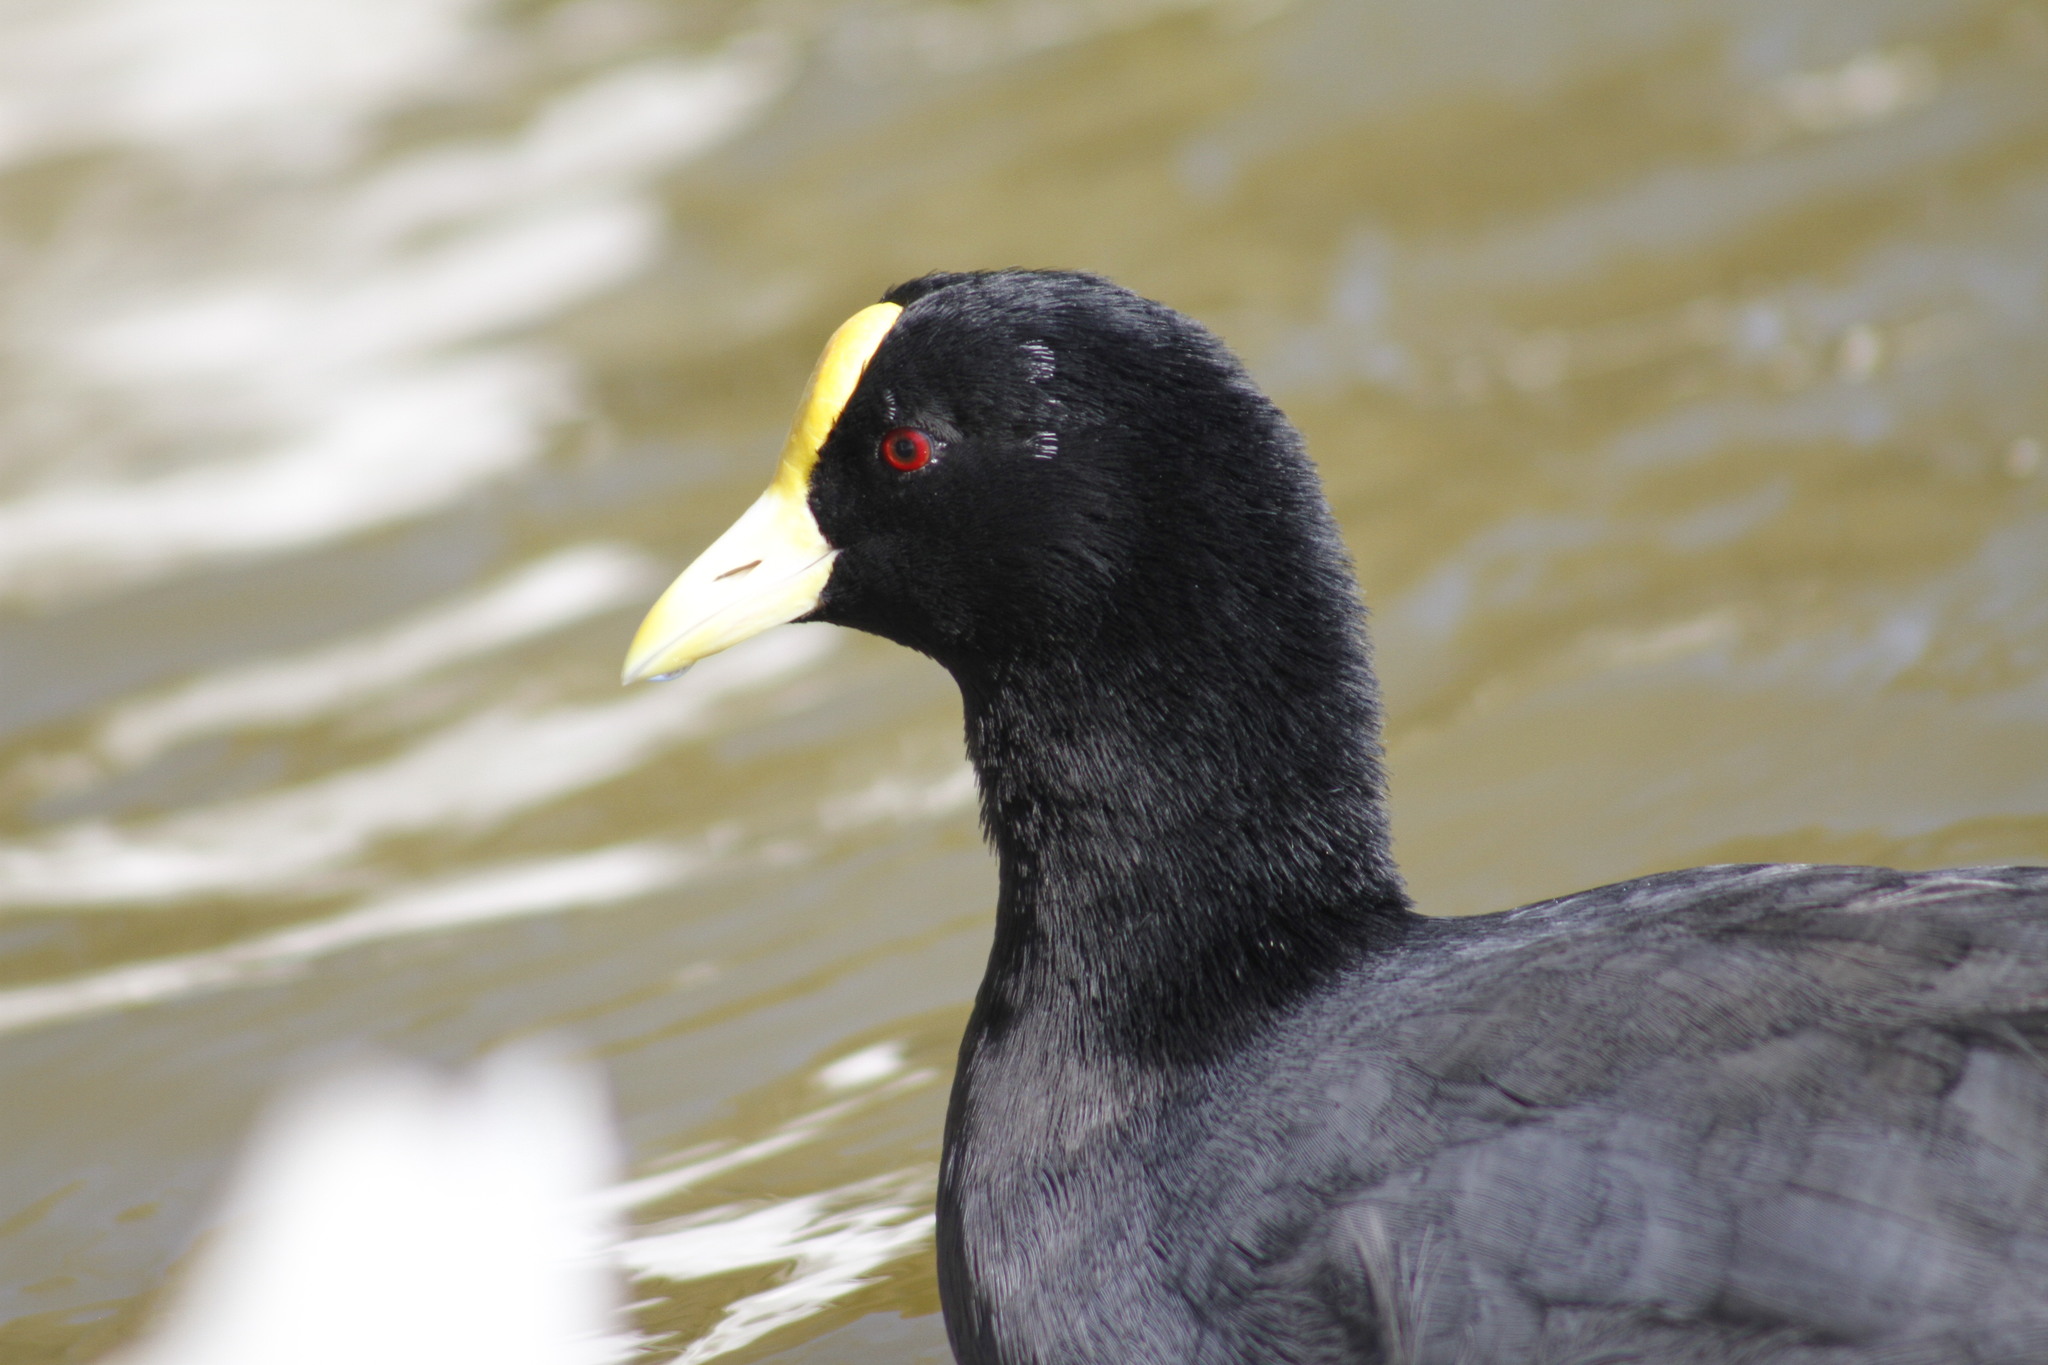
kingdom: Animalia
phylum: Chordata
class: Aves
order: Gruiformes
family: Rallidae
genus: Fulica
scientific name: Fulica leucoptera
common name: White-winged coot
